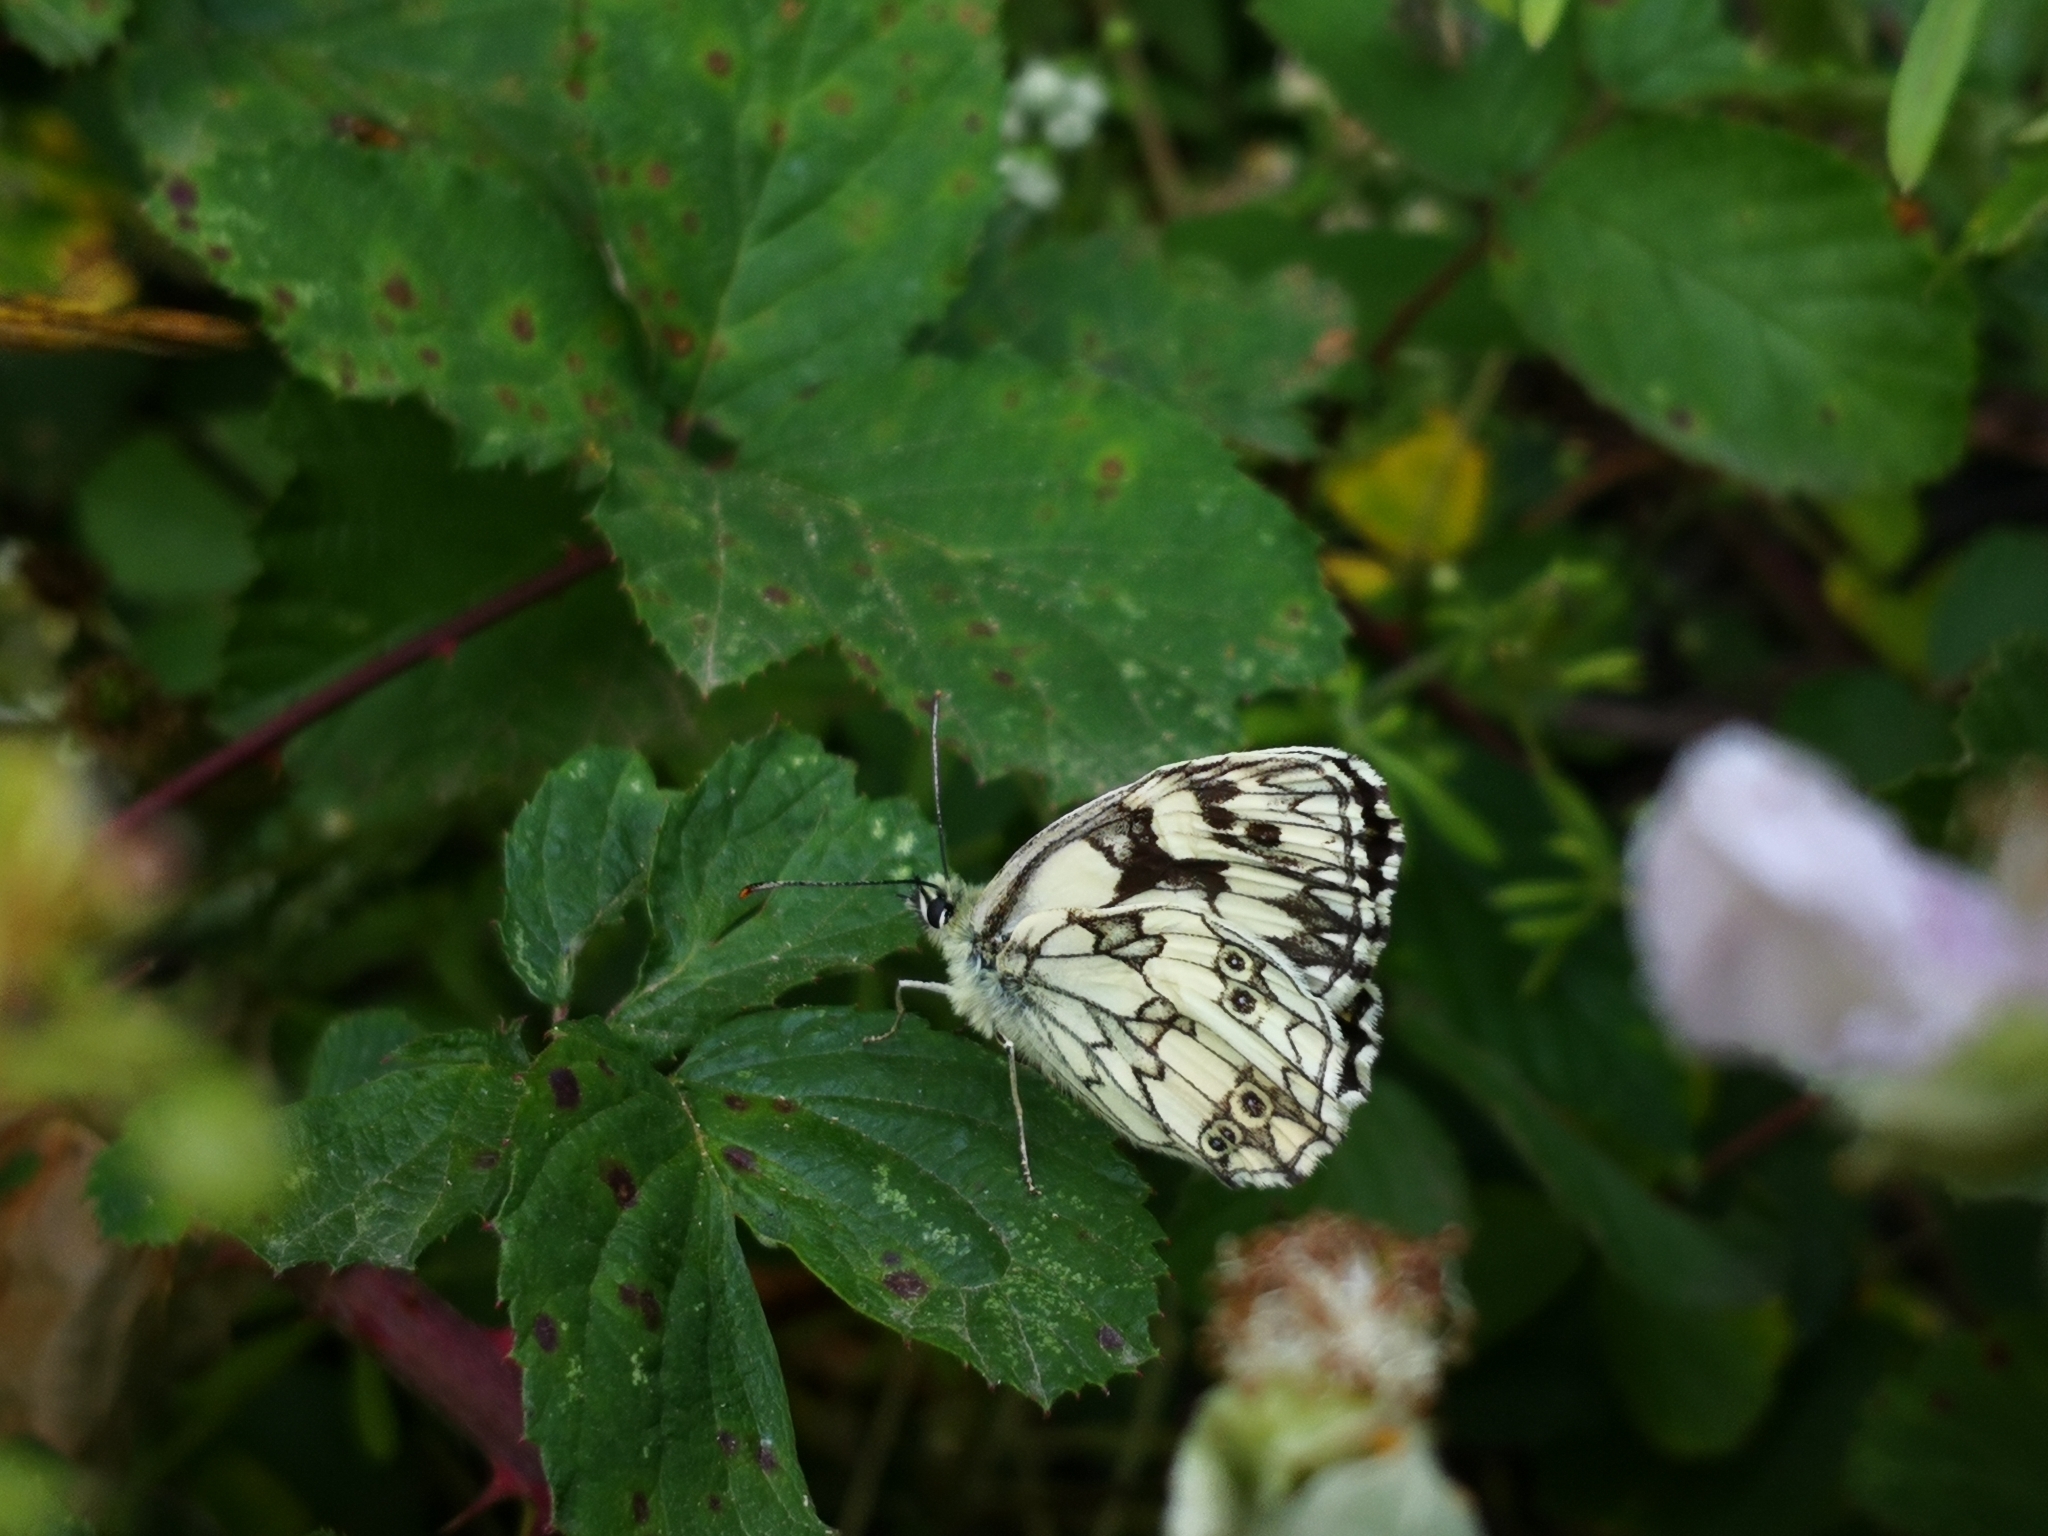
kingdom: Animalia
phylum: Arthropoda
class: Insecta
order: Lepidoptera
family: Nymphalidae
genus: Melanargia
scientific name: Melanargia galathea
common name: Marbled white
